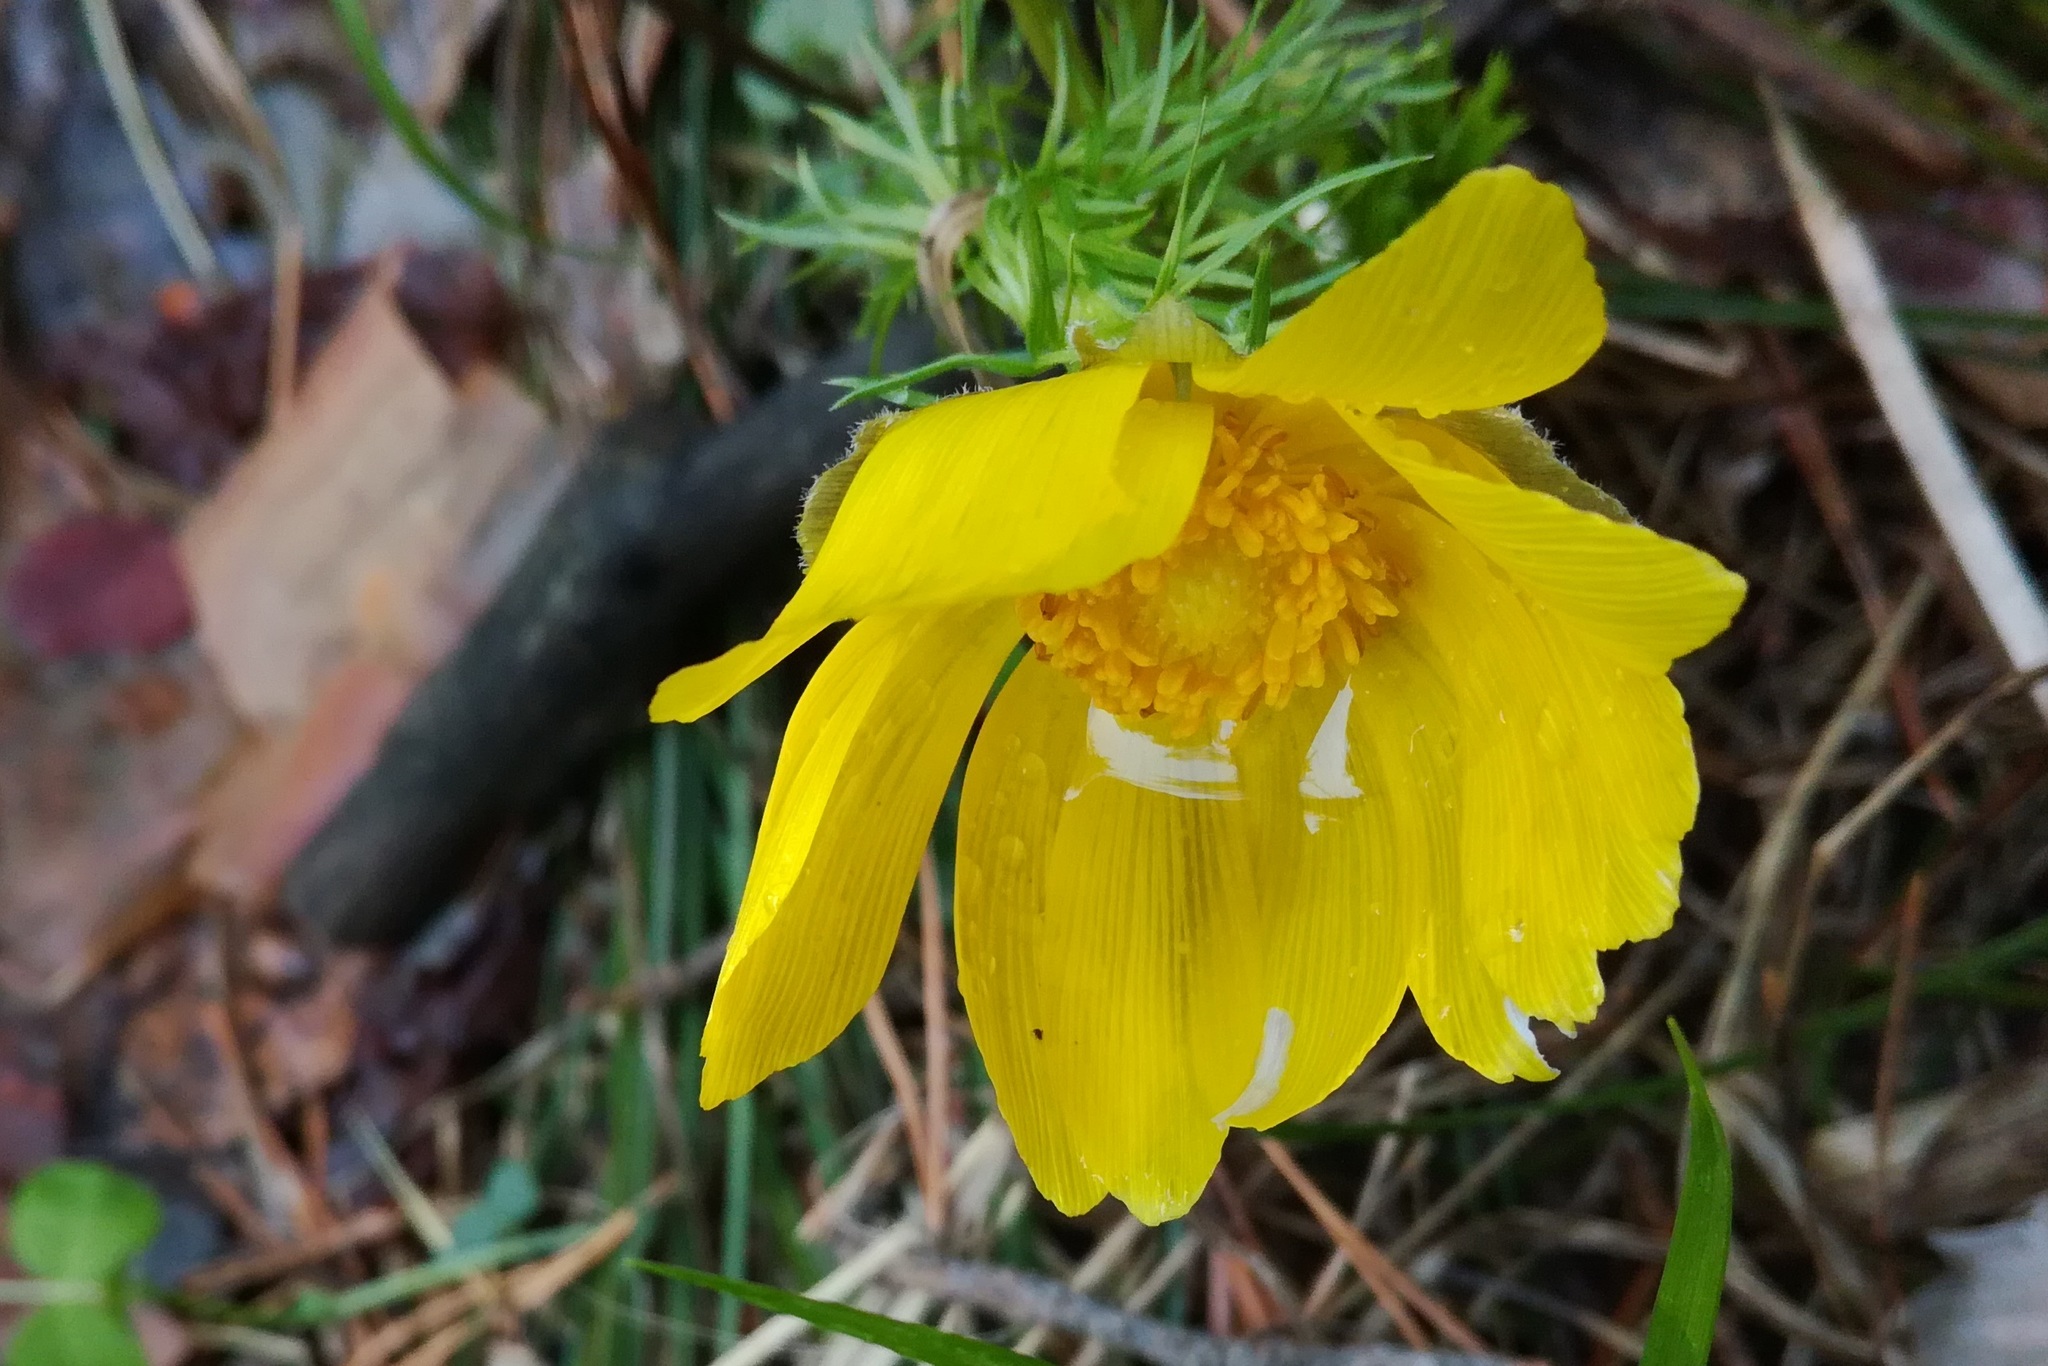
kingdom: Plantae
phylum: Tracheophyta
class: Magnoliopsida
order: Ranunculales
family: Ranunculaceae
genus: Adonis
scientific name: Adonis vernalis
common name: Yellow pheasants-eye
